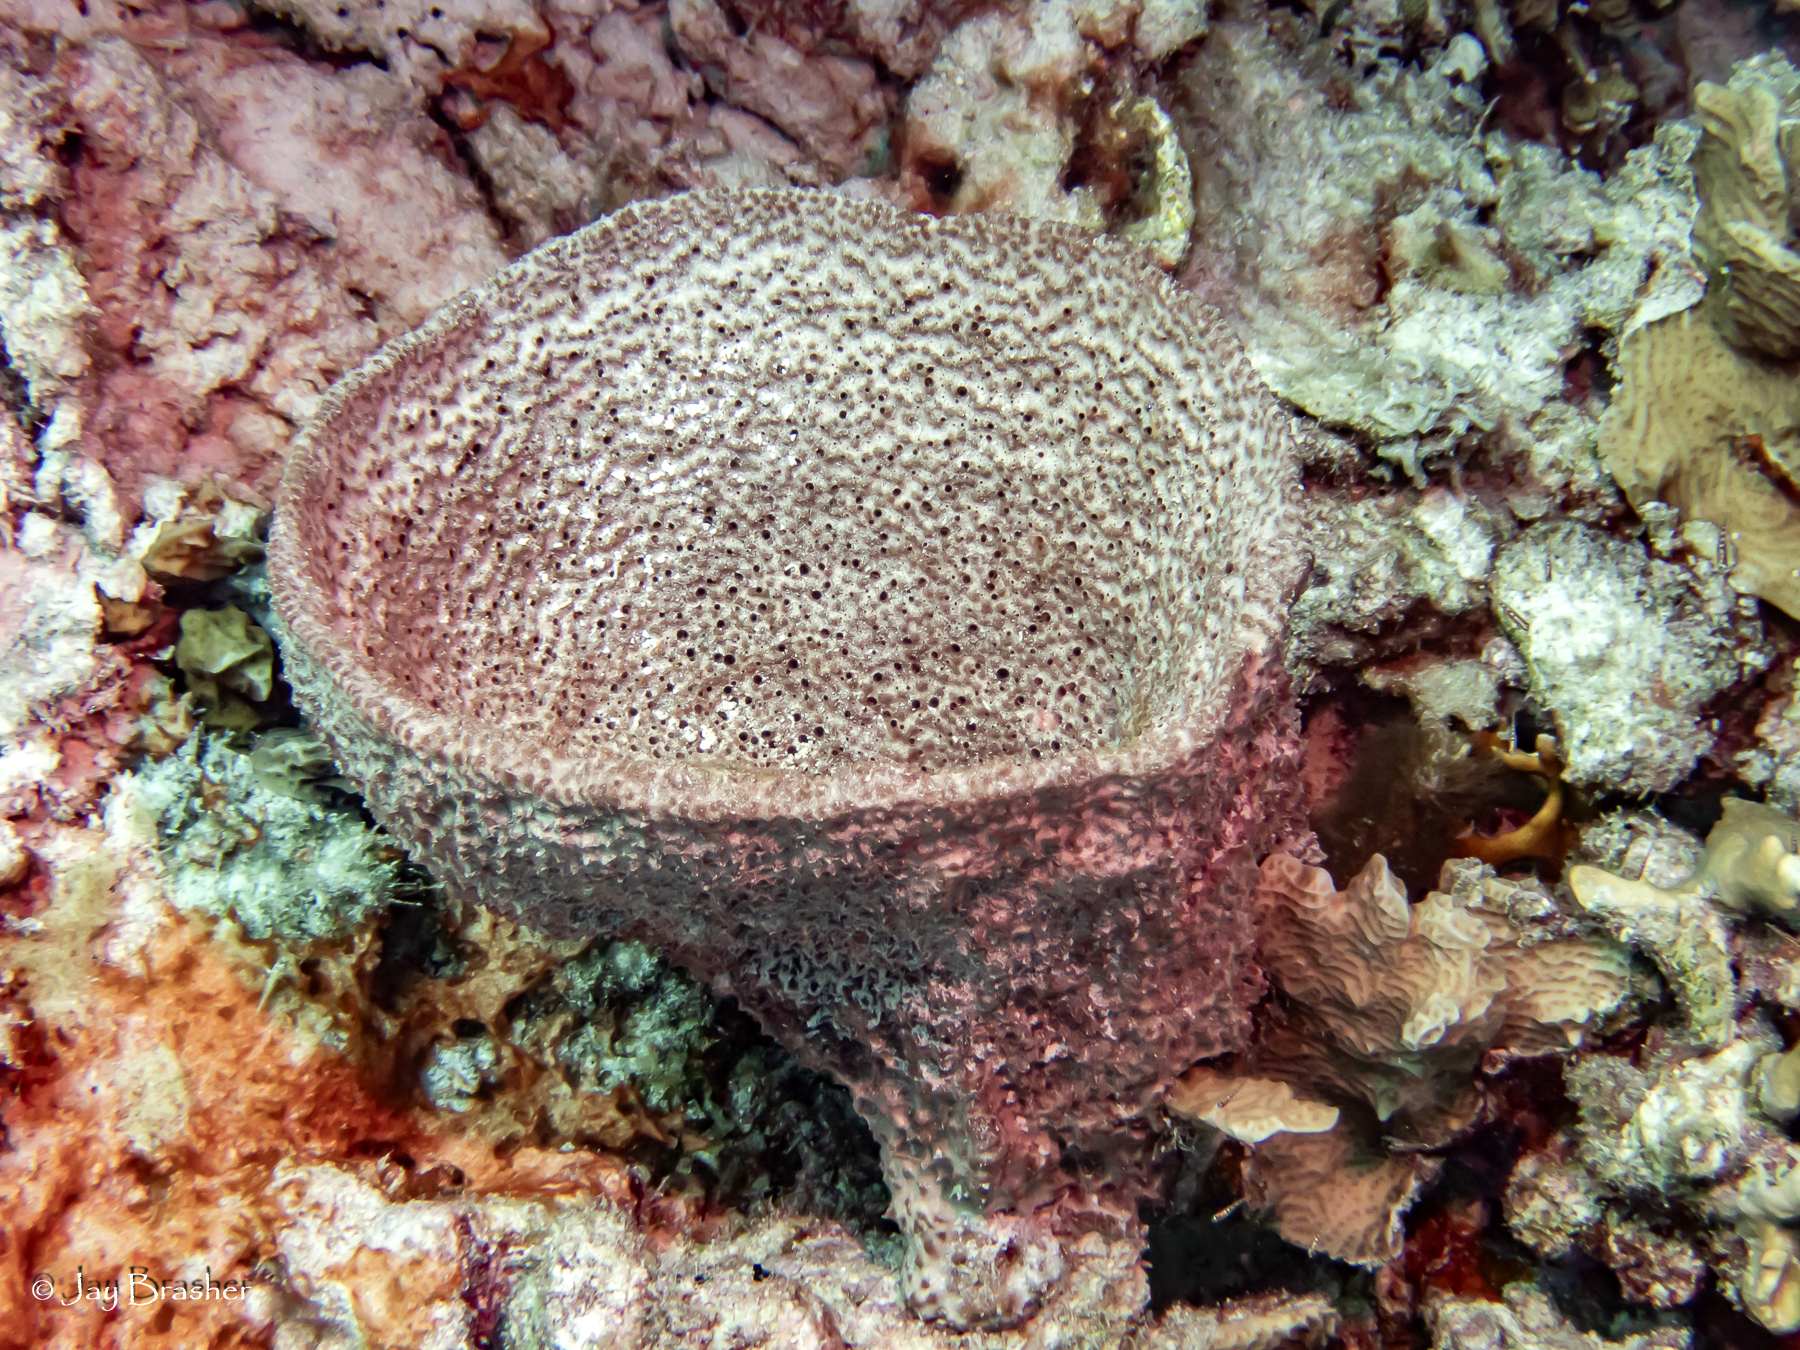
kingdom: Animalia
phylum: Porifera
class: Demospongiae
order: Dictyoceratida
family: Irciniidae
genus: Ircinia
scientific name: Ircinia campana
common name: Vase sponge
